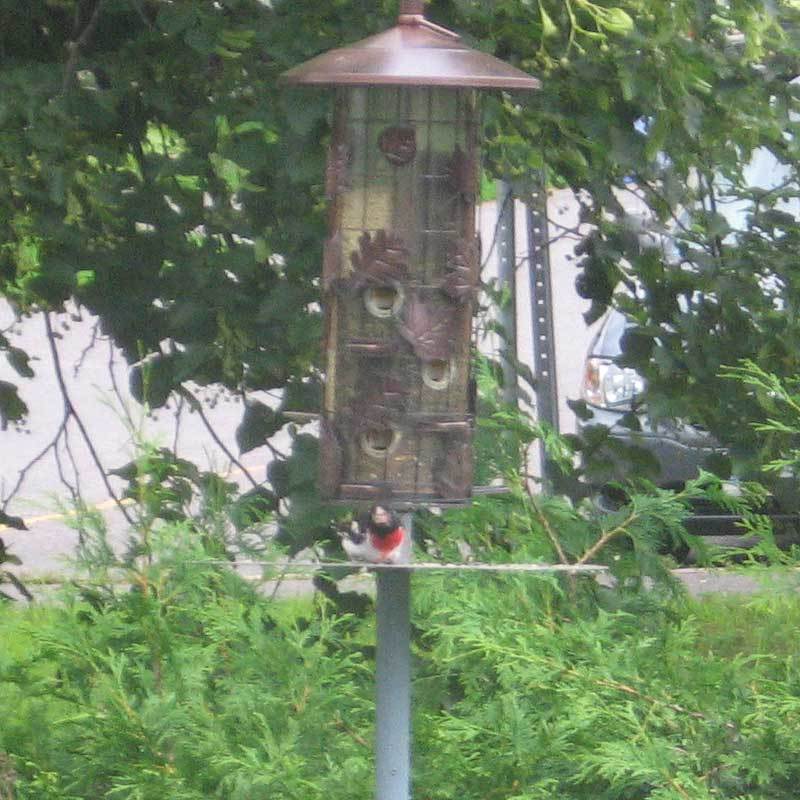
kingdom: Animalia
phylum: Chordata
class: Aves
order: Passeriformes
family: Cardinalidae
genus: Pheucticus
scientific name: Pheucticus ludovicianus
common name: Rose-breasted grosbeak
